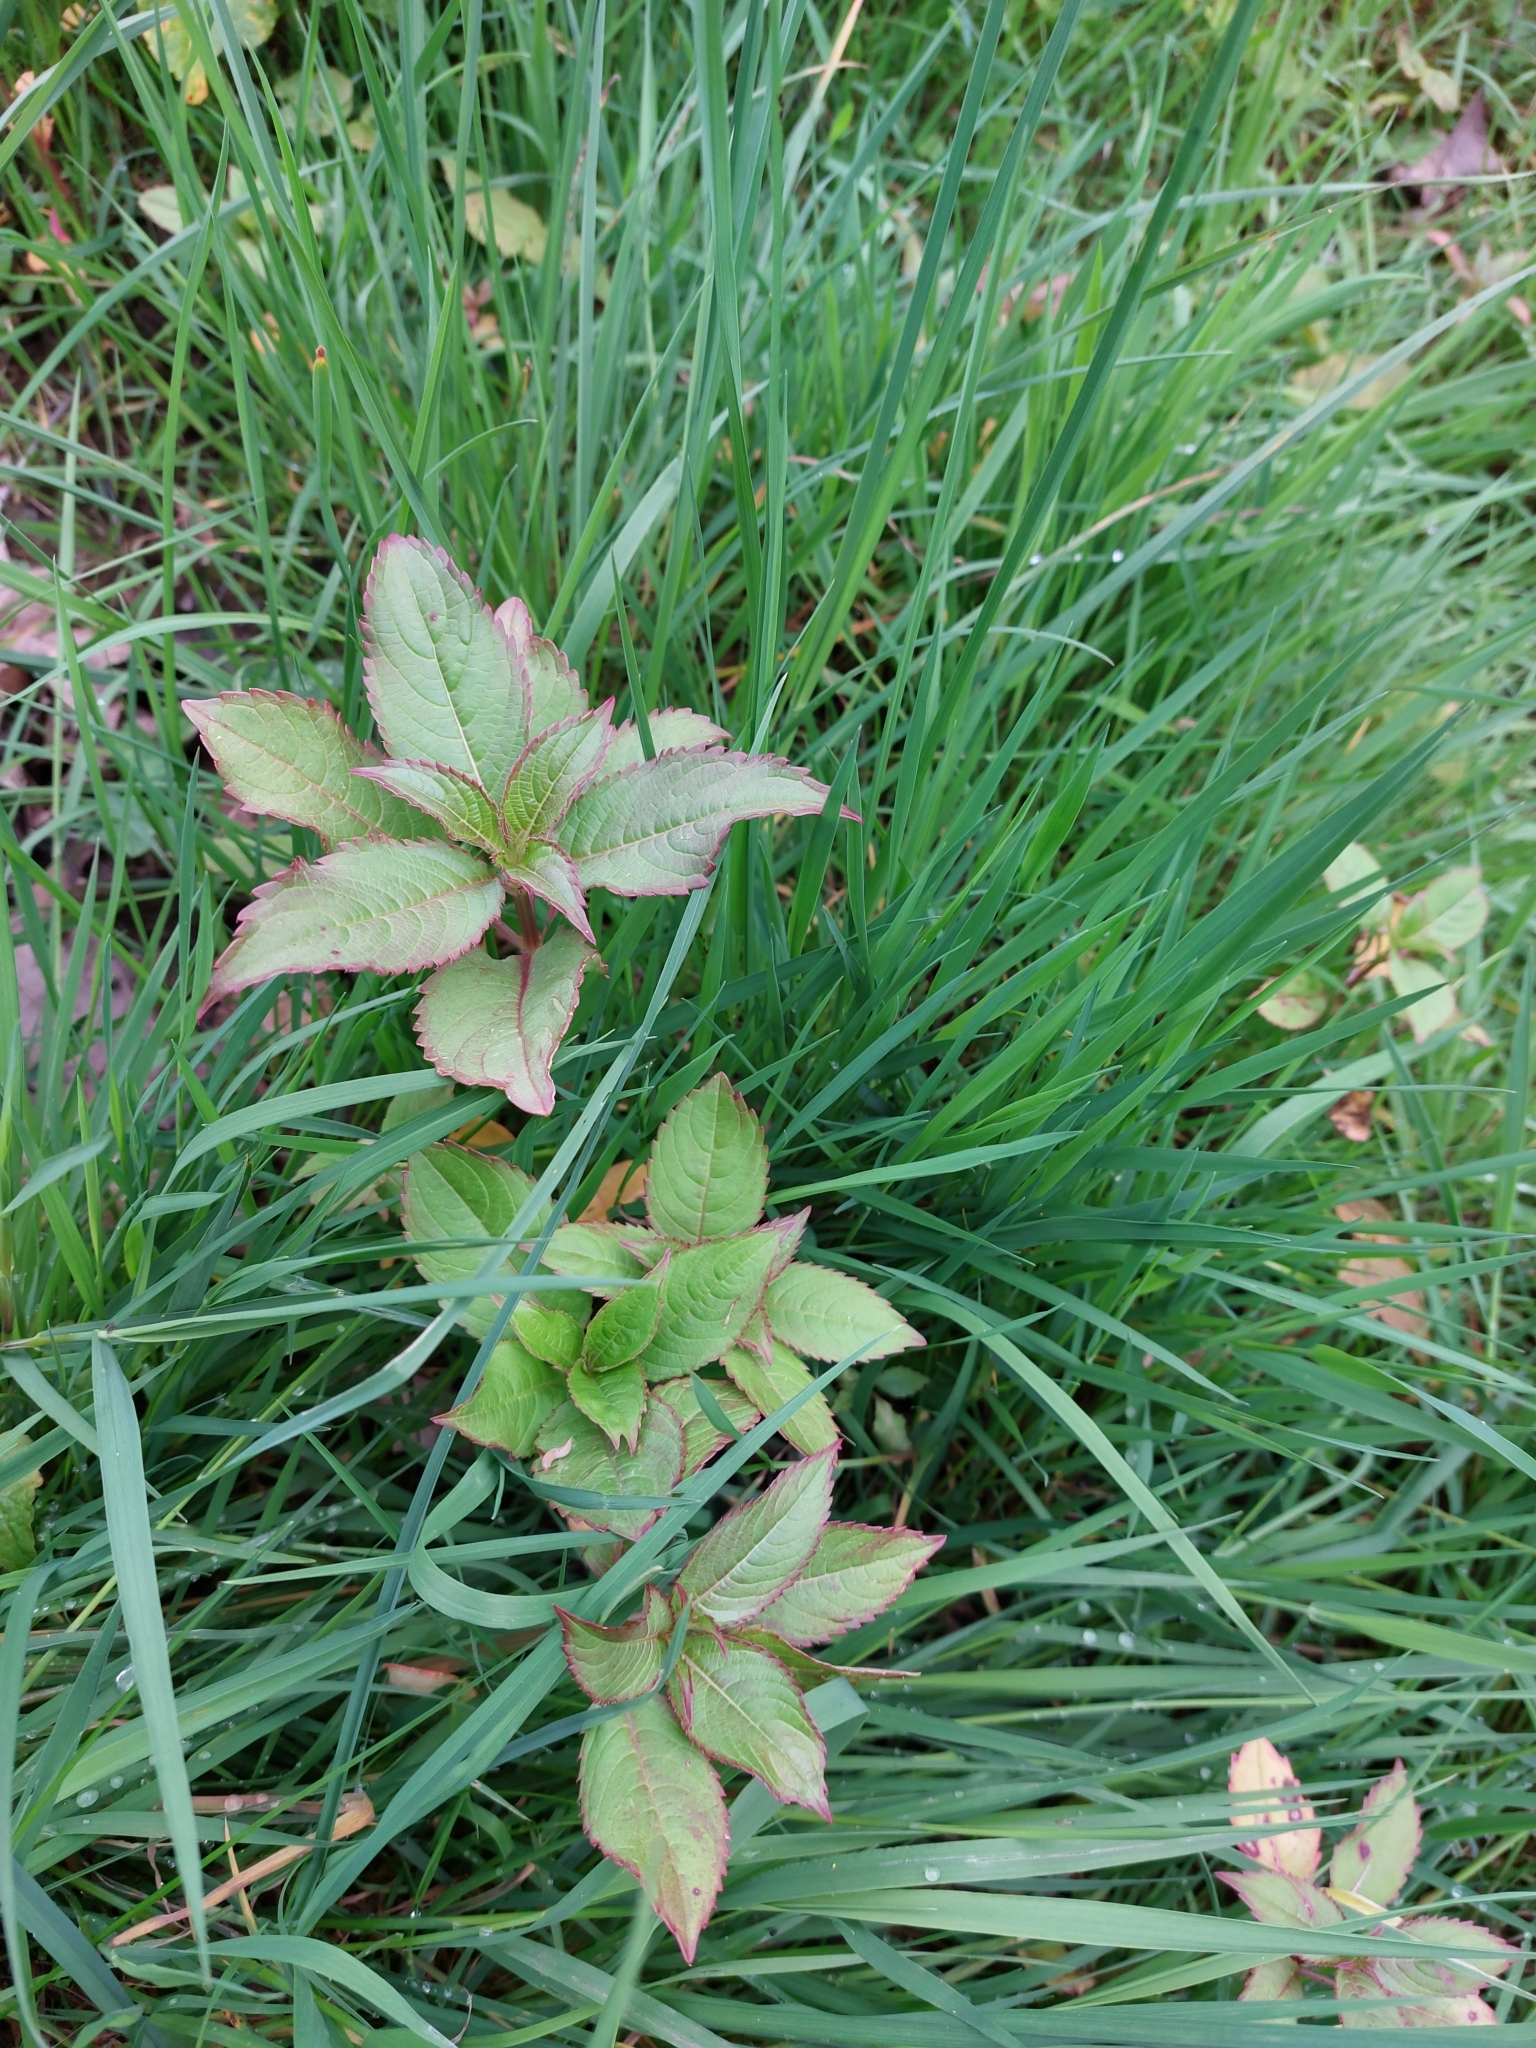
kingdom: Plantae
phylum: Tracheophyta
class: Magnoliopsida
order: Ericales
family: Balsaminaceae
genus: Impatiens
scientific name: Impatiens glandulifera
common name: Himalayan balsam
